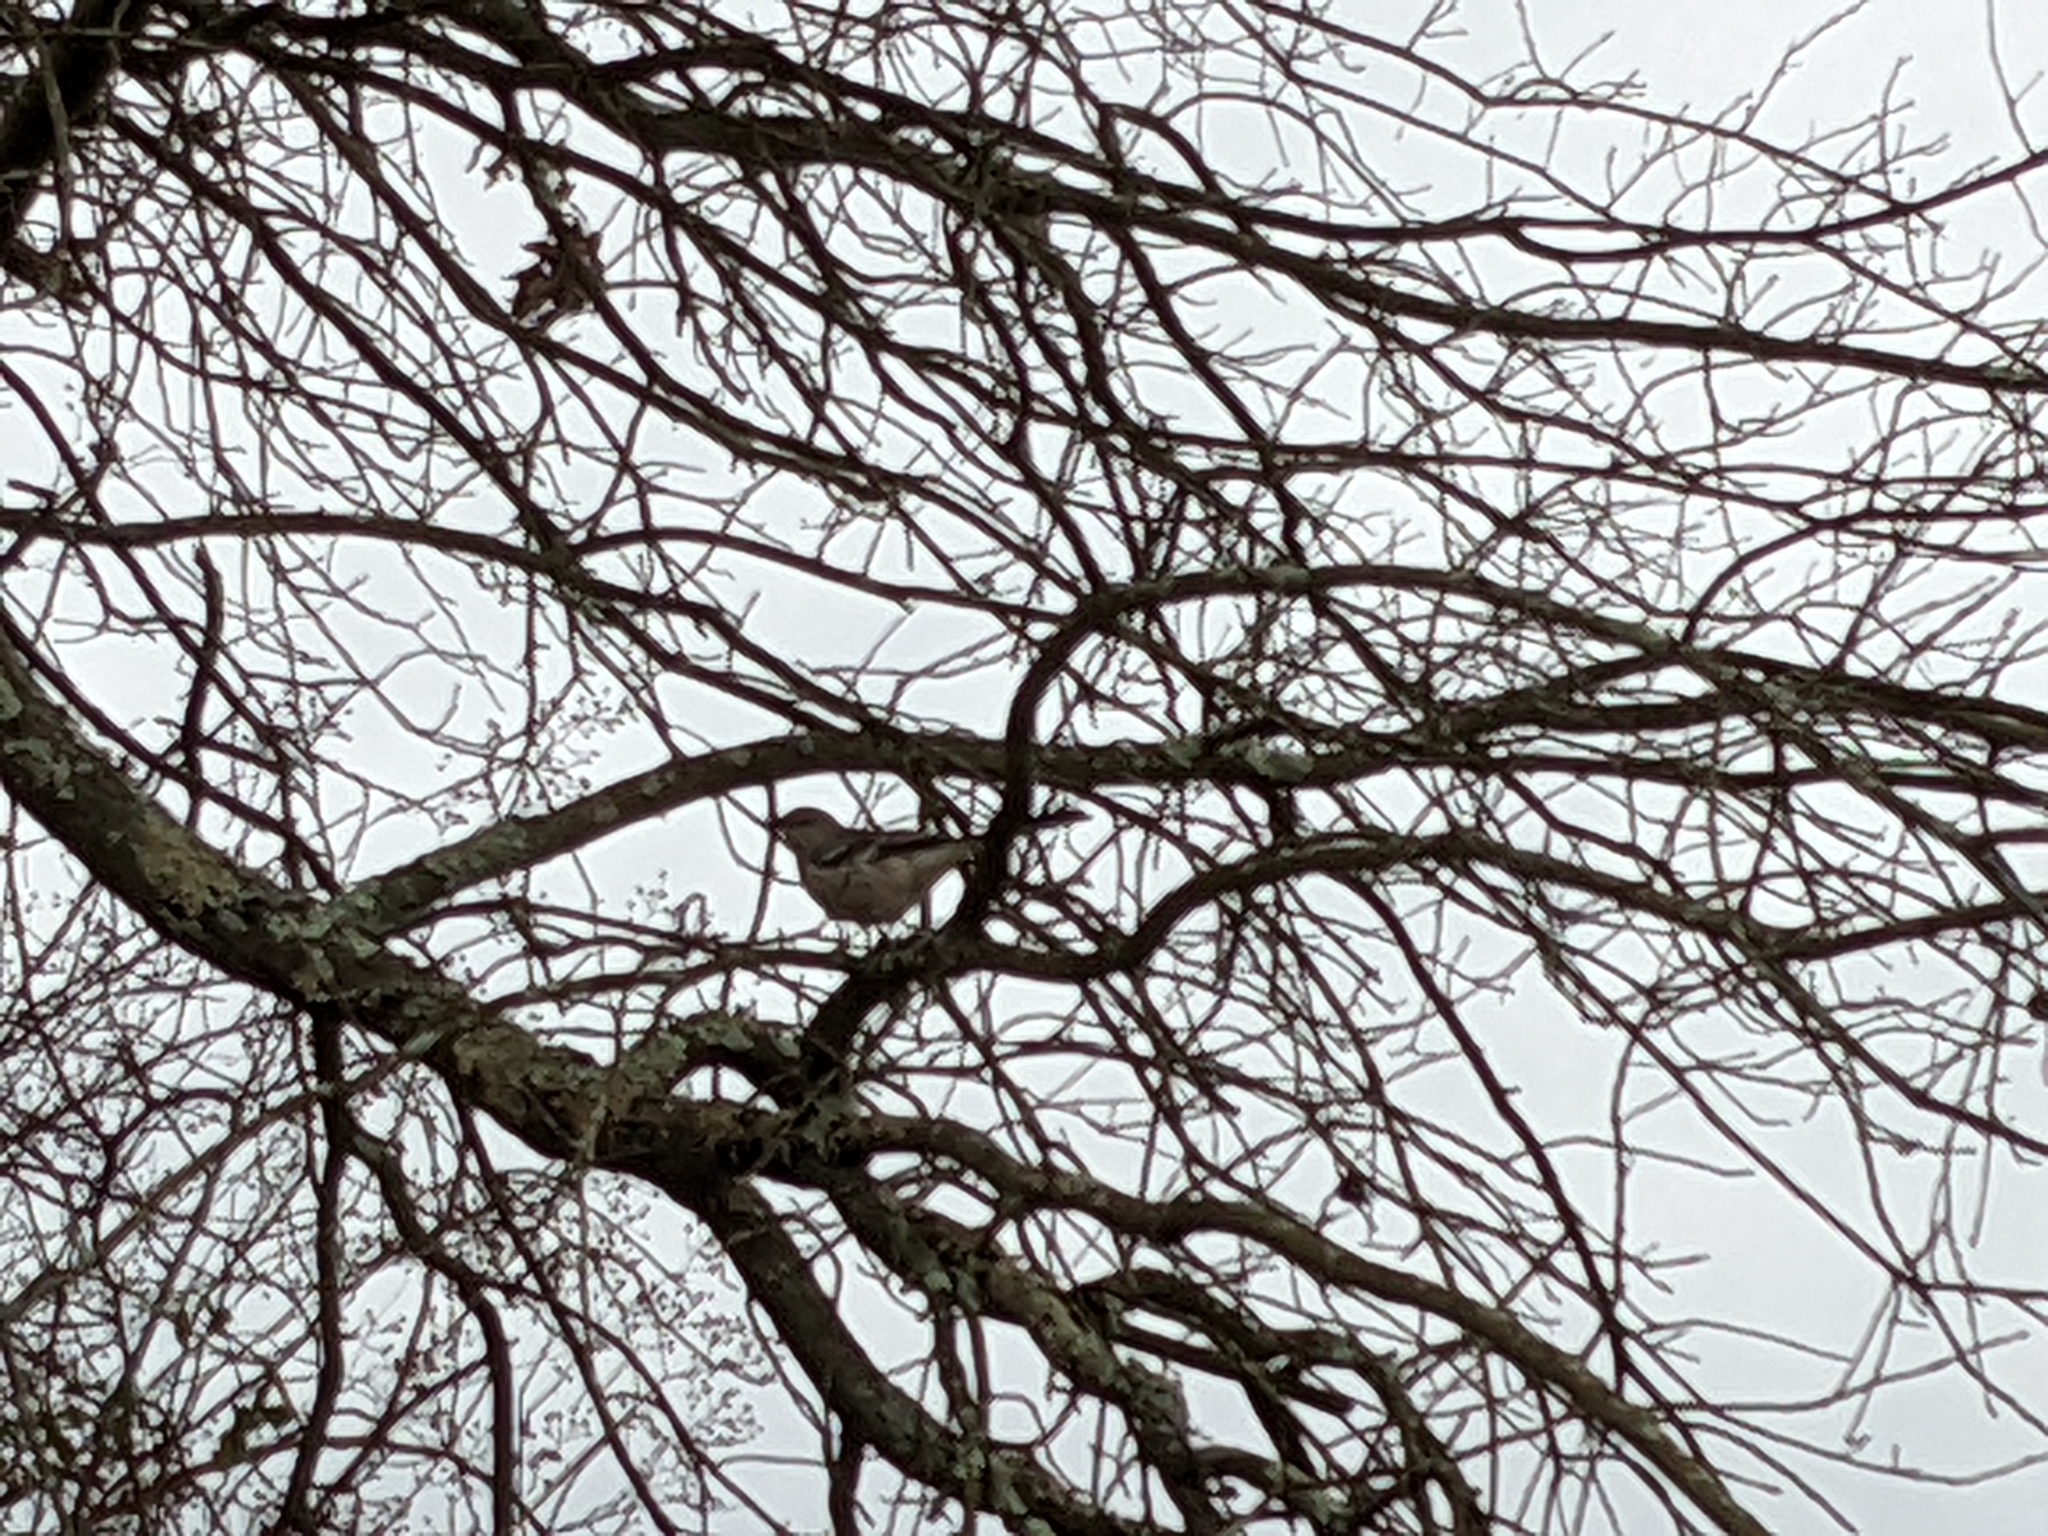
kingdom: Animalia
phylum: Chordata
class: Aves
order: Passeriformes
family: Mimidae
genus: Mimus
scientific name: Mimus polyglottos
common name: Northern mockingbird
